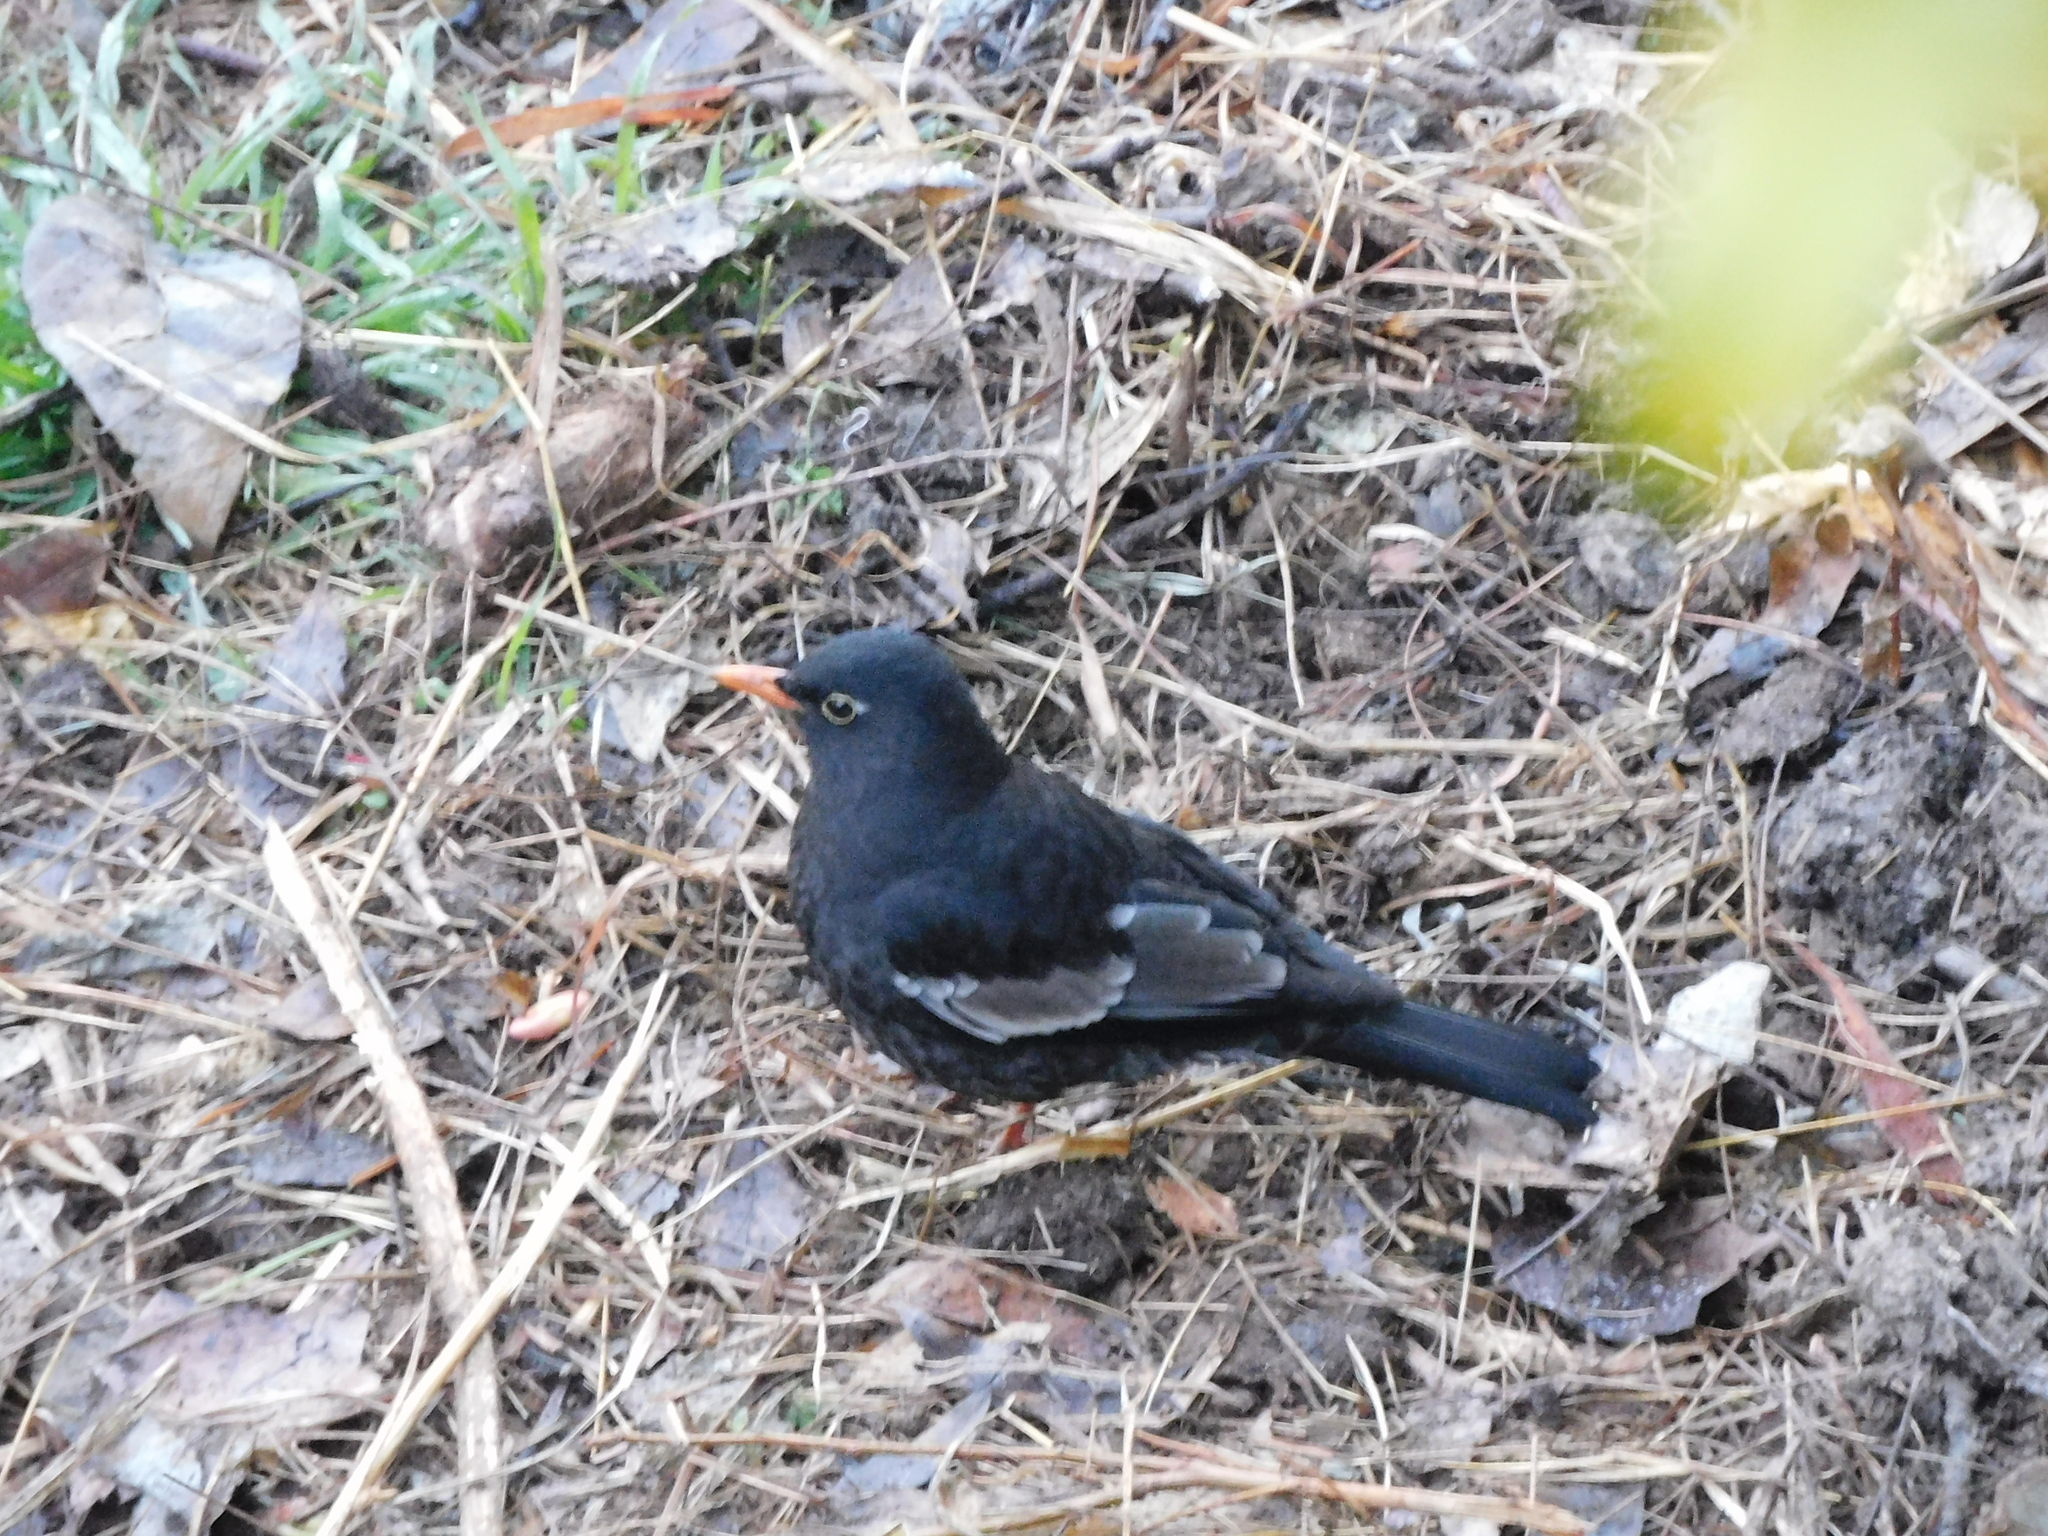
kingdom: Animalia
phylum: Chordata
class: Aves
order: Passeriformes
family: Turdidae
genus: Turdus
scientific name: Turdus boulboul
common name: Grey-winged blackbird
